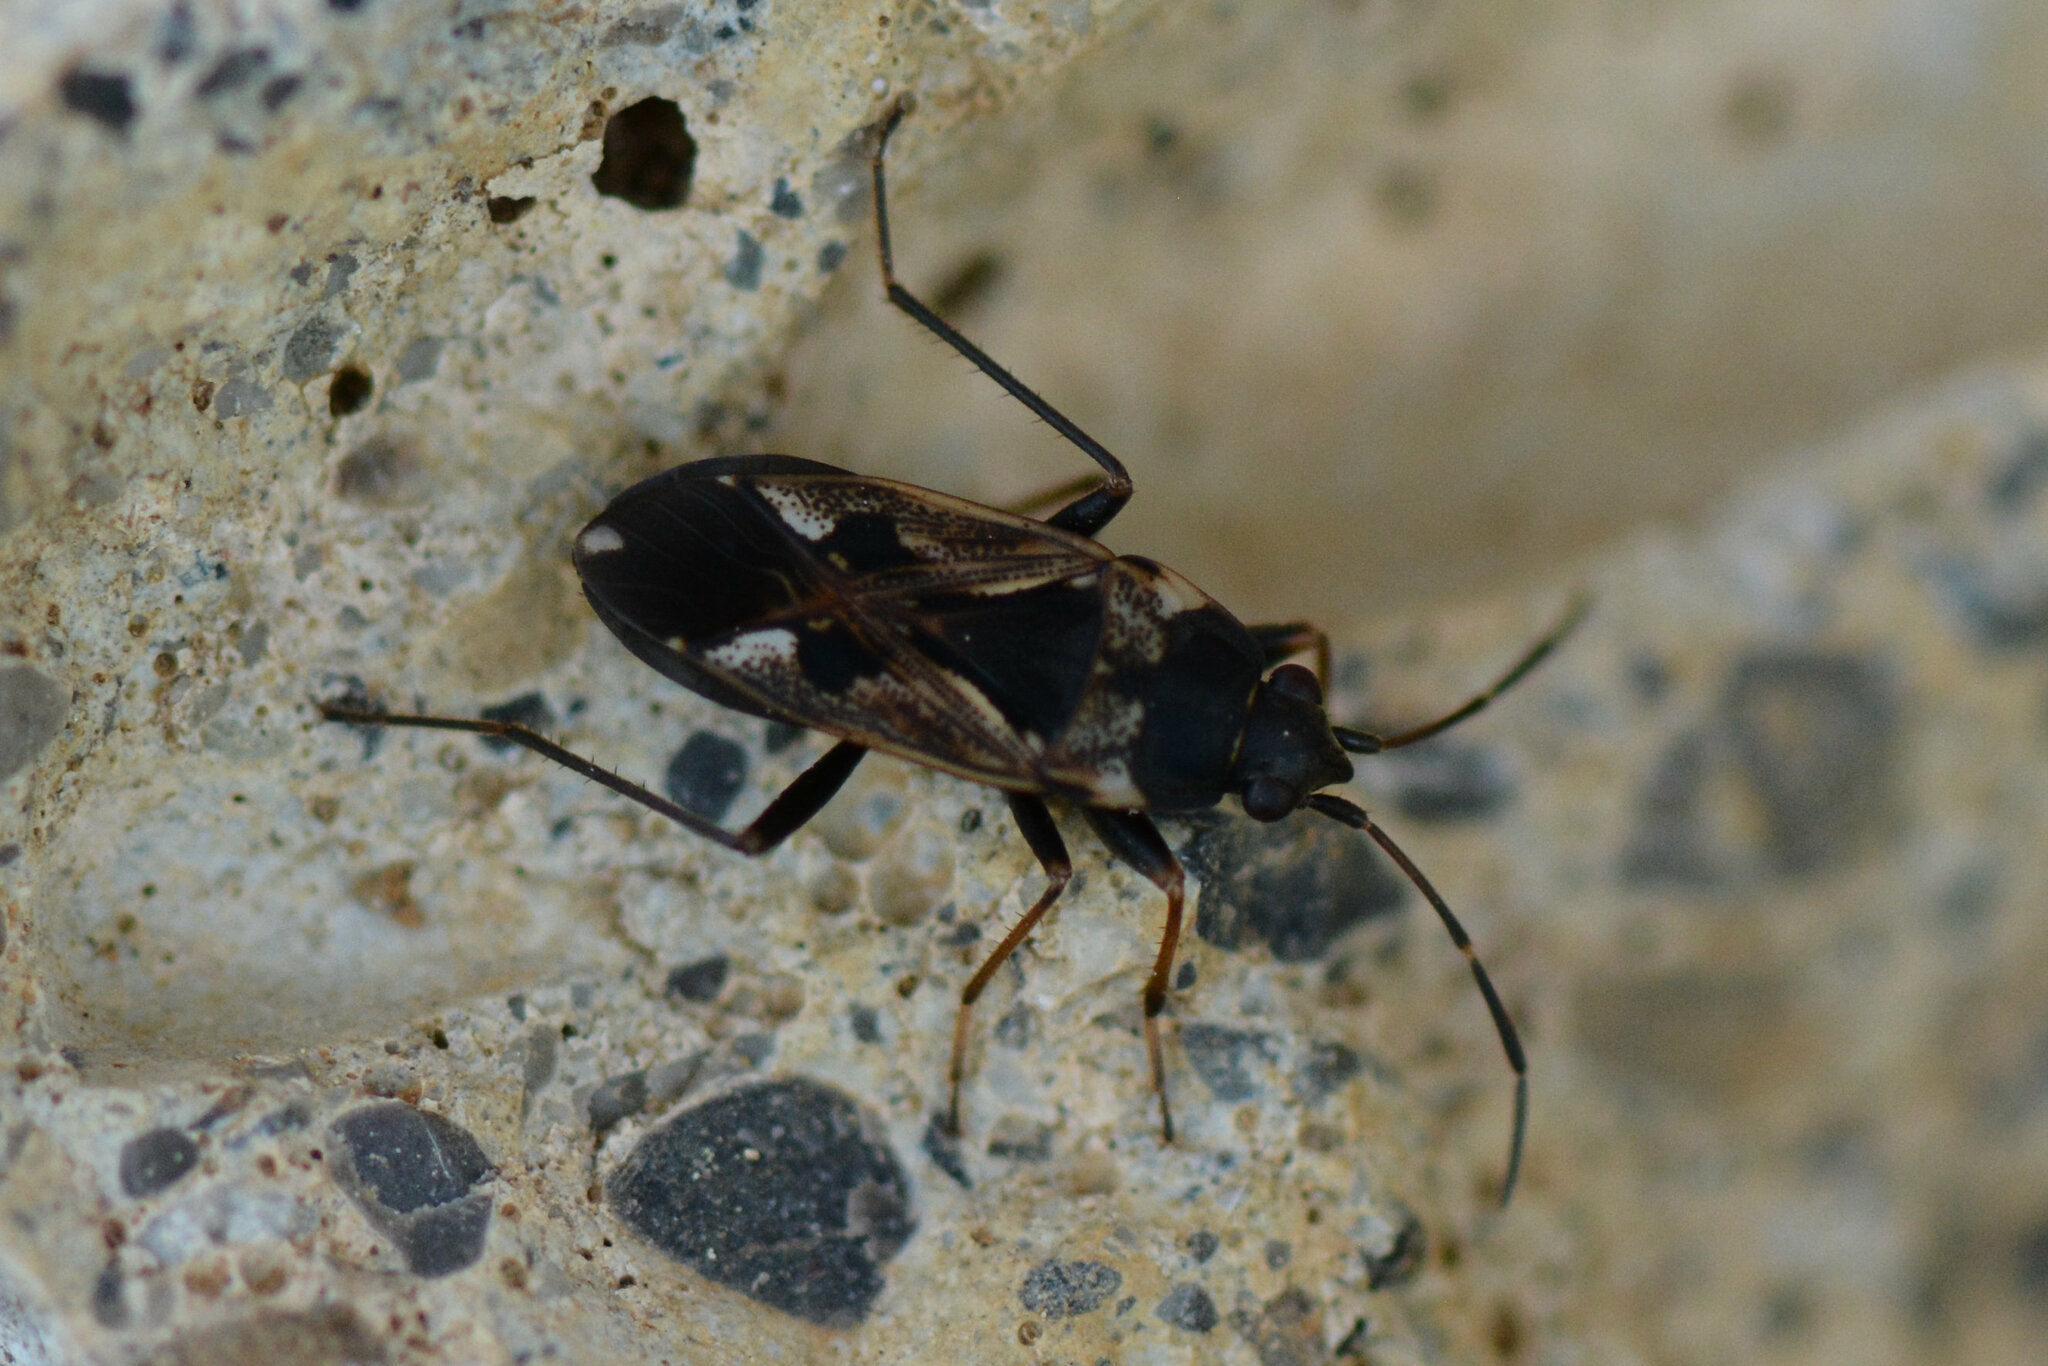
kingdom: Animalia
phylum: Arthropoda
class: Insecta
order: Hemiptera
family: Rhyparochromidae
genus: Rhyparochromus
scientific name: Rhyparochromus vulgaris
